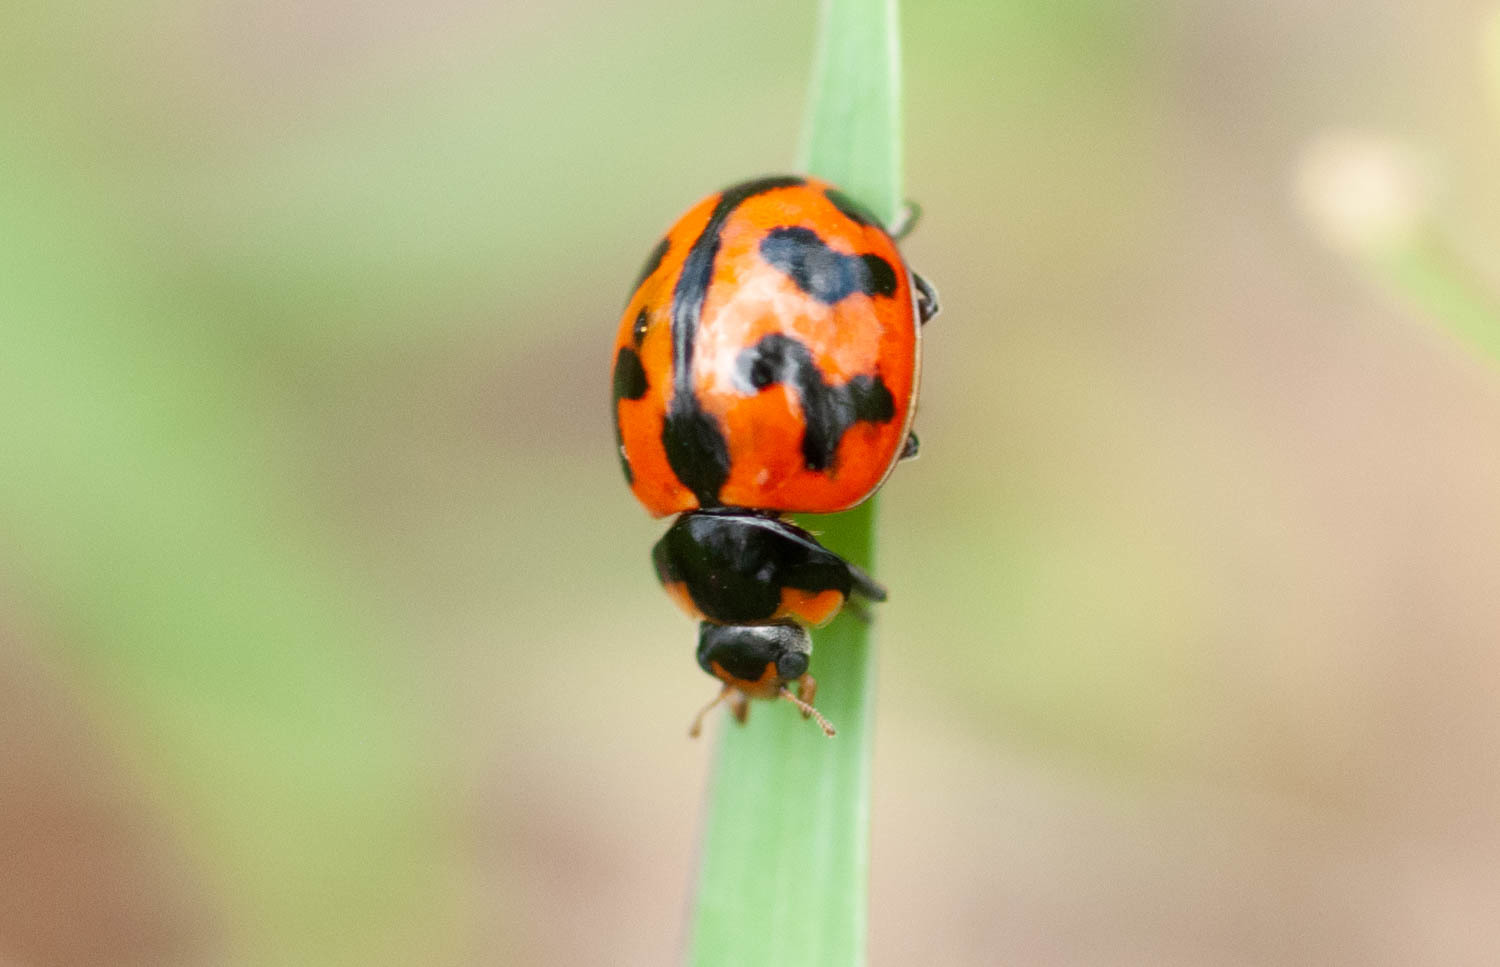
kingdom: Animalia
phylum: Arthropoda
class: Insecta
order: Coleoptera
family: Coccinellidae
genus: Coccinella
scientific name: Coccinella transversalis
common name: Transverse lady beetle
